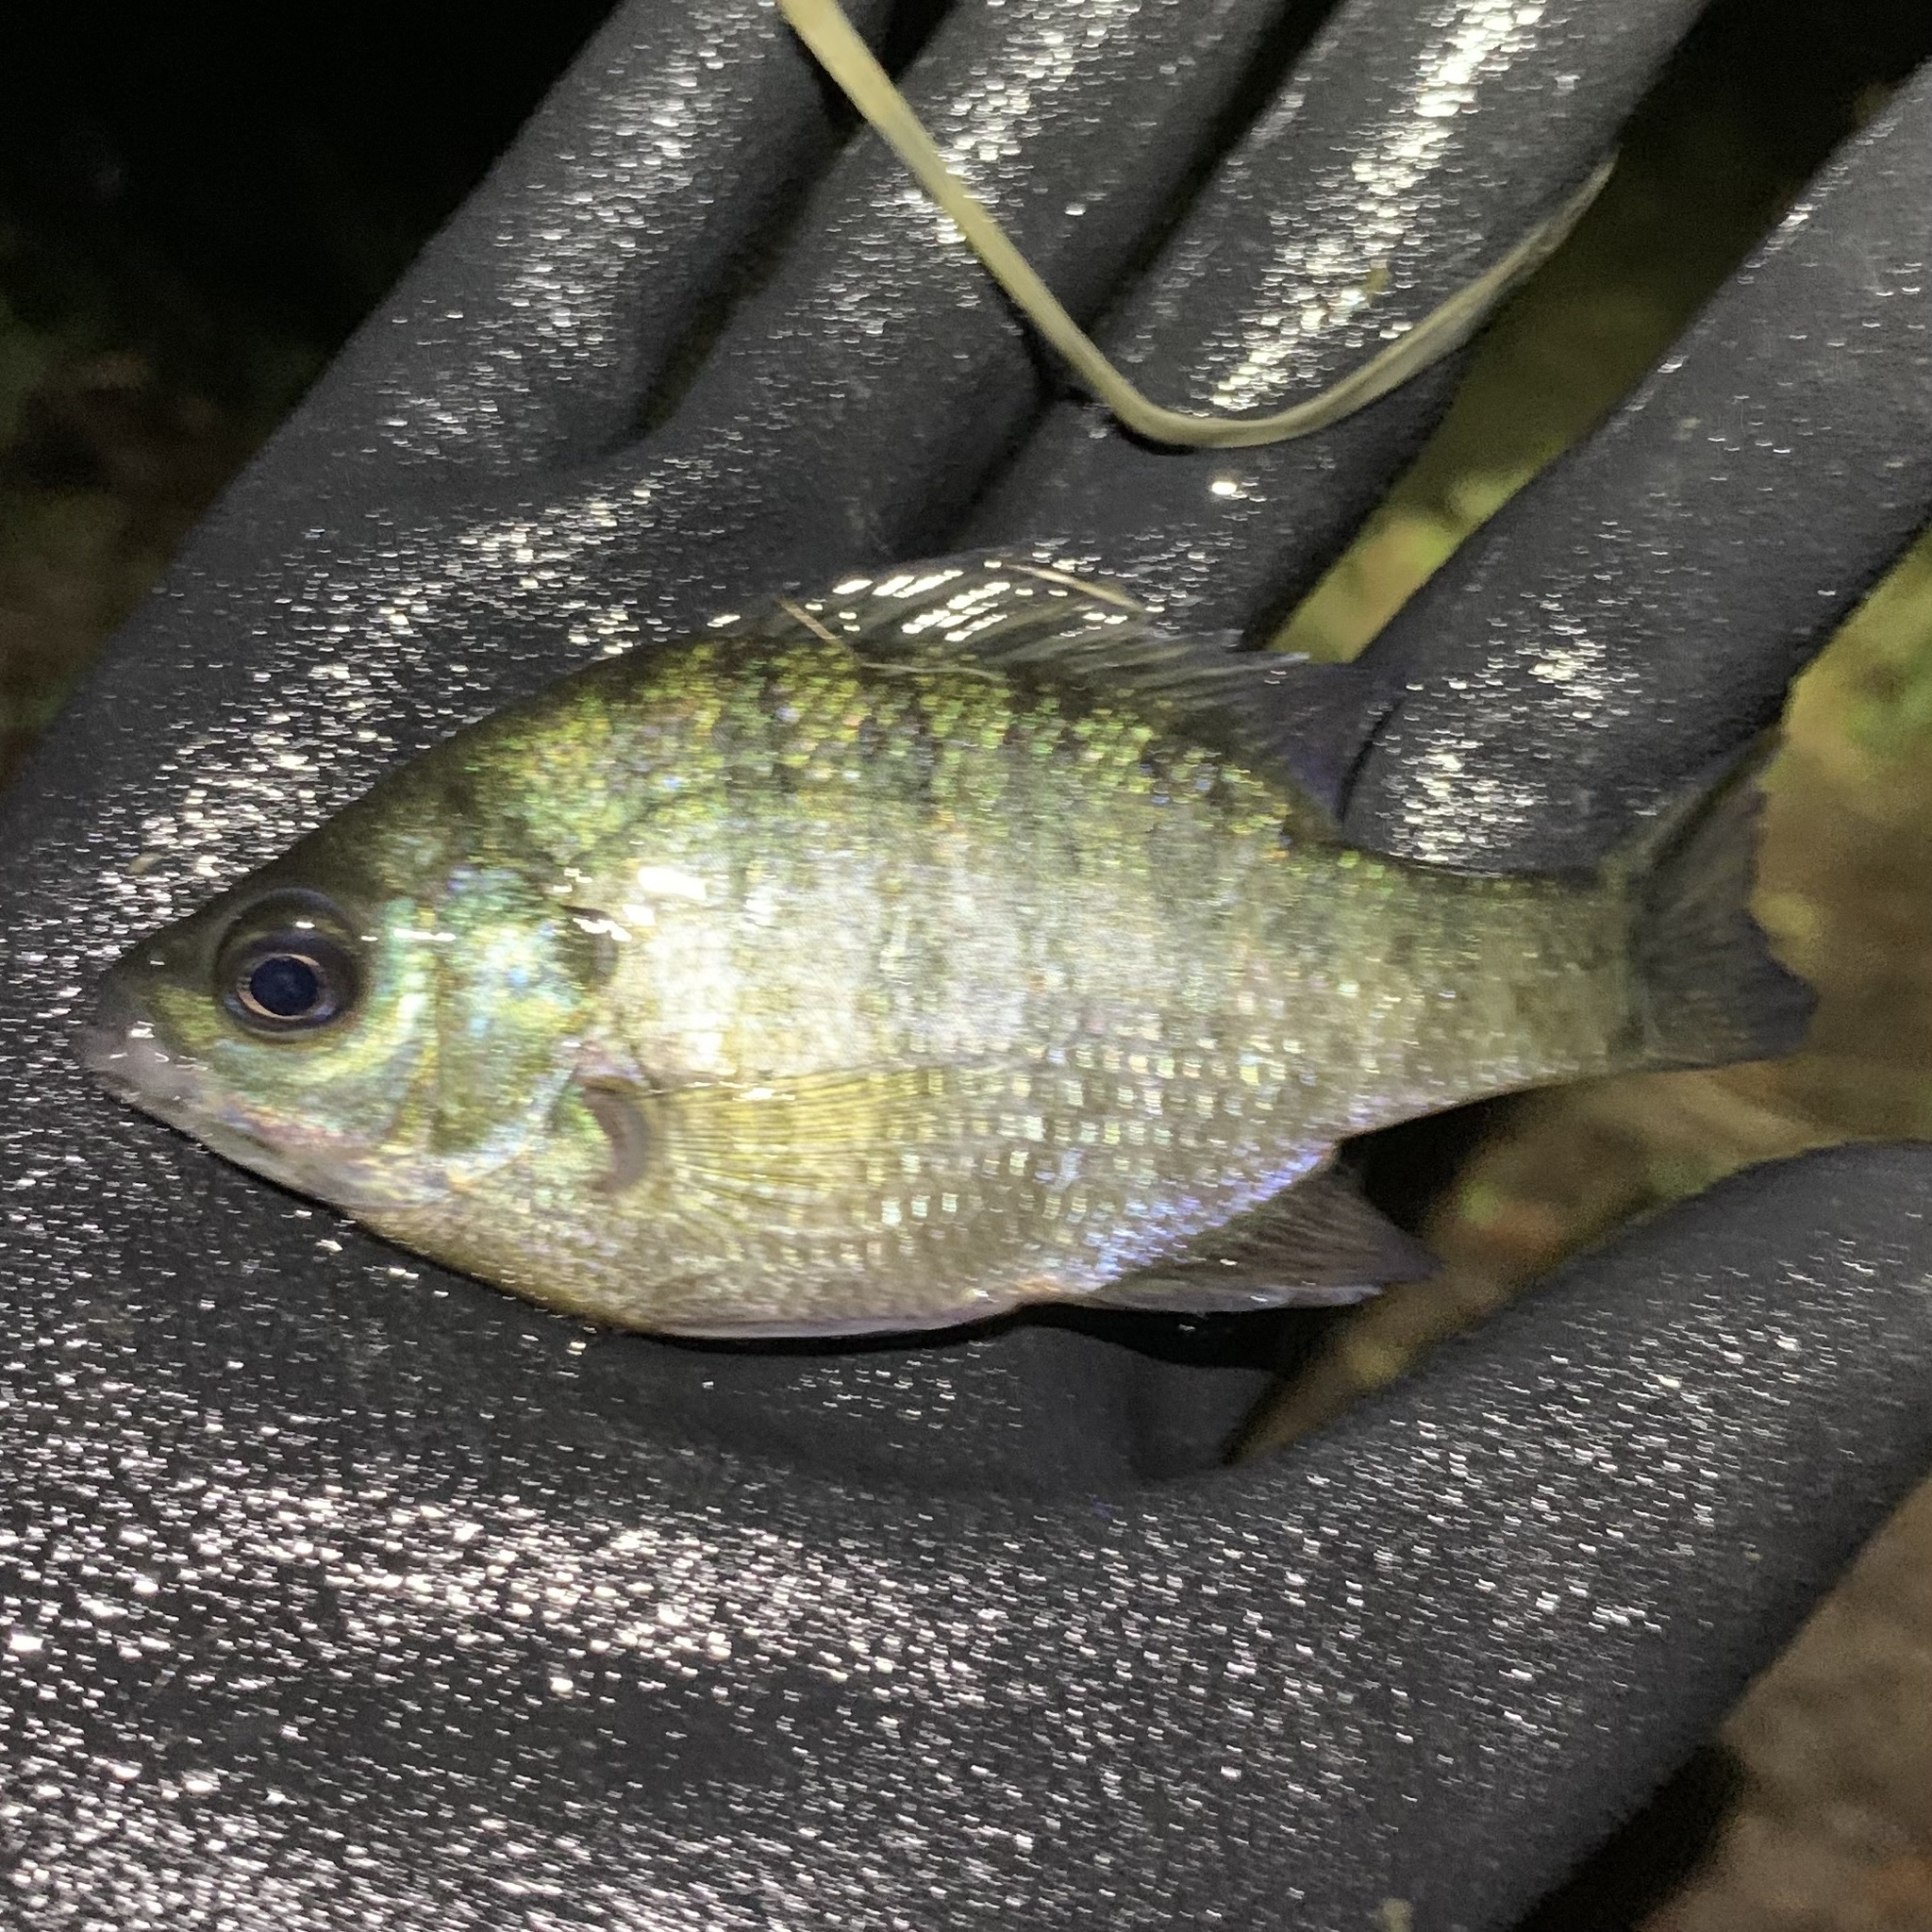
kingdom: Animalia
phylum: Chordata
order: Perciformes
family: Centrarchidae
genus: Lepomis
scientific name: Lepomis macrochirus
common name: Bluegill
